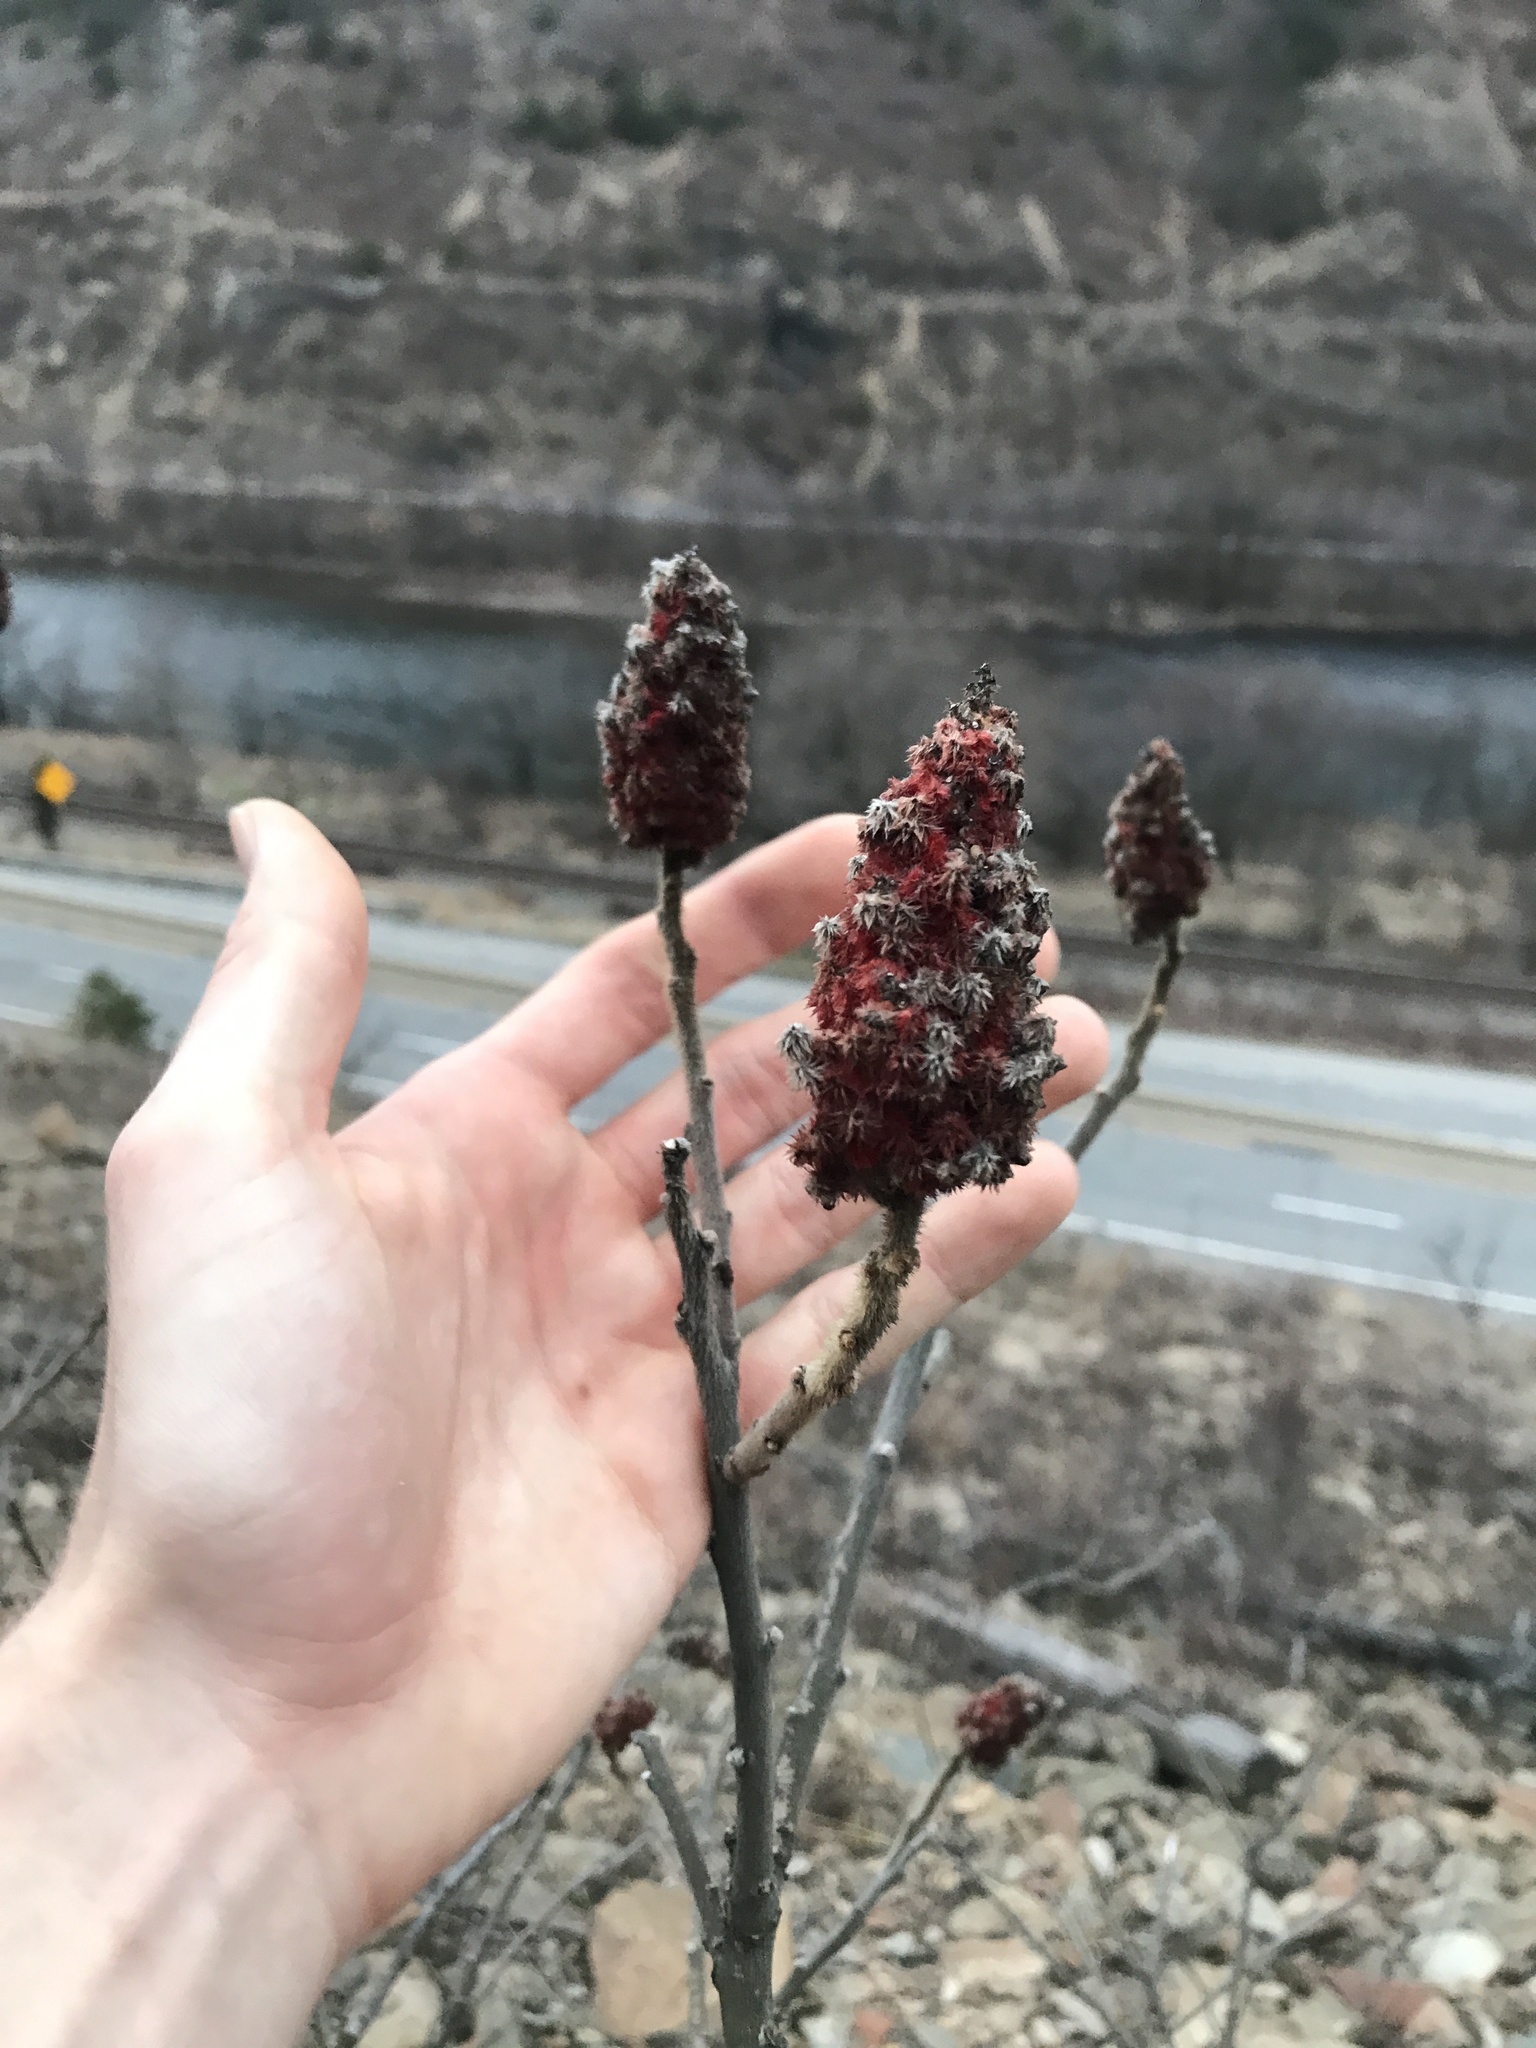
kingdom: Plantae
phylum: Tracheophyta
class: Magnoliopsida
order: Sapindales
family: Anacardiaceae
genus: Rhus
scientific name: Rhus typhina
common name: Staghorn sumac
